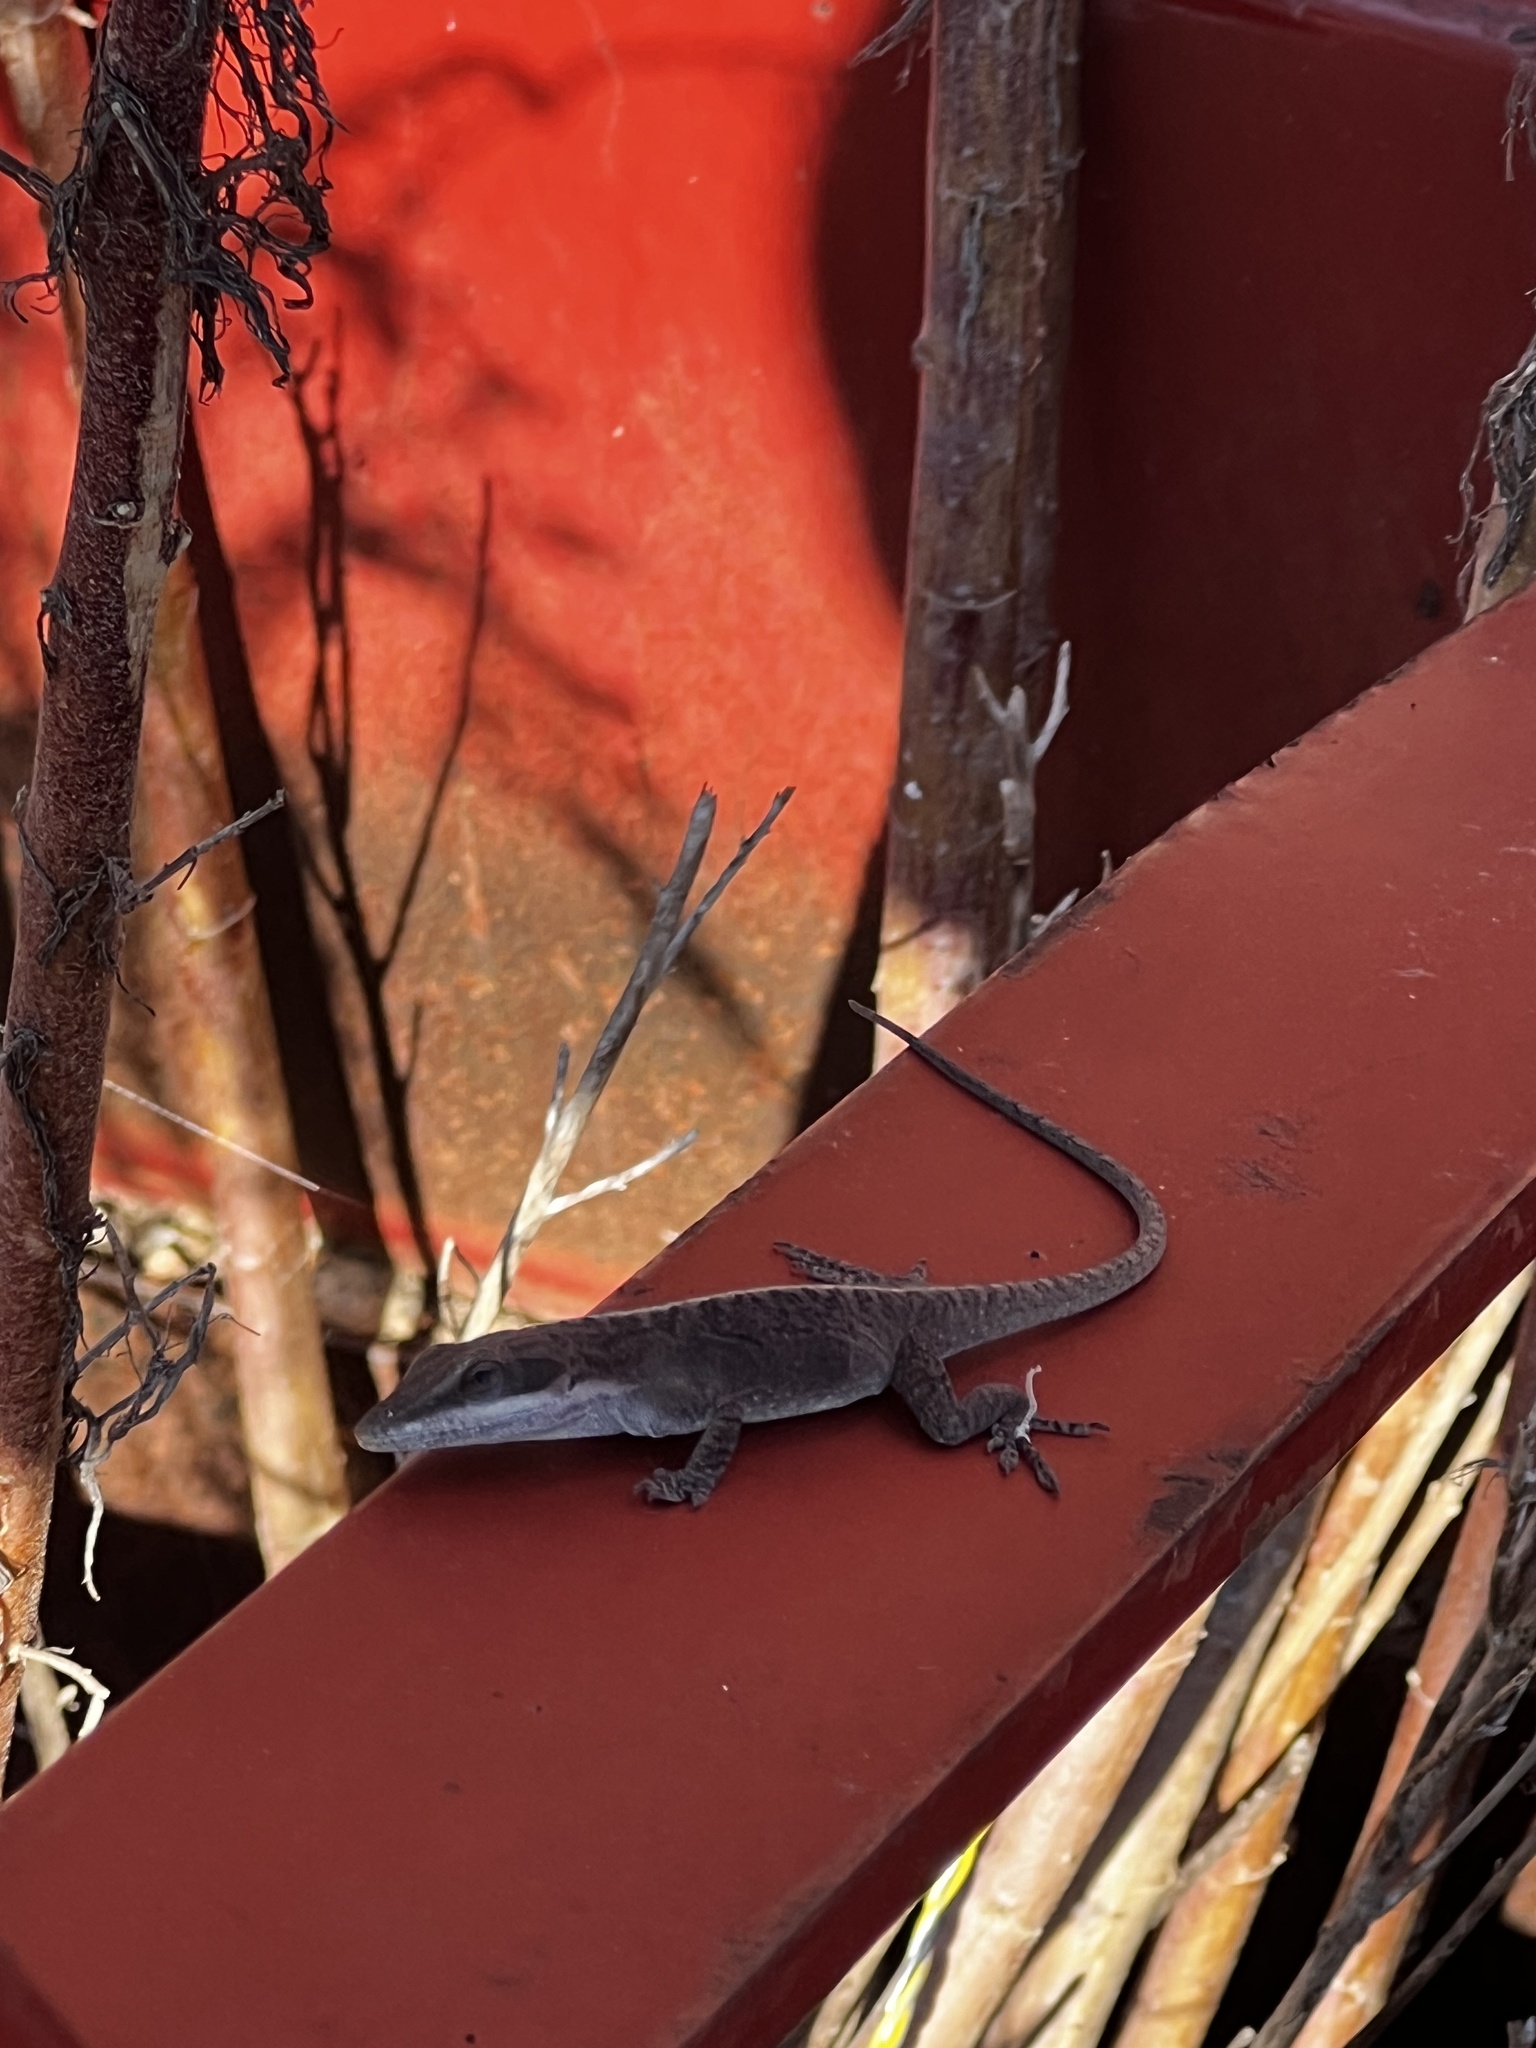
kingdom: Animalia
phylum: Chordata
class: Squamata
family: Dactyloidae
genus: Anolis
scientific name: Anolis carolinensis
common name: Green anole
